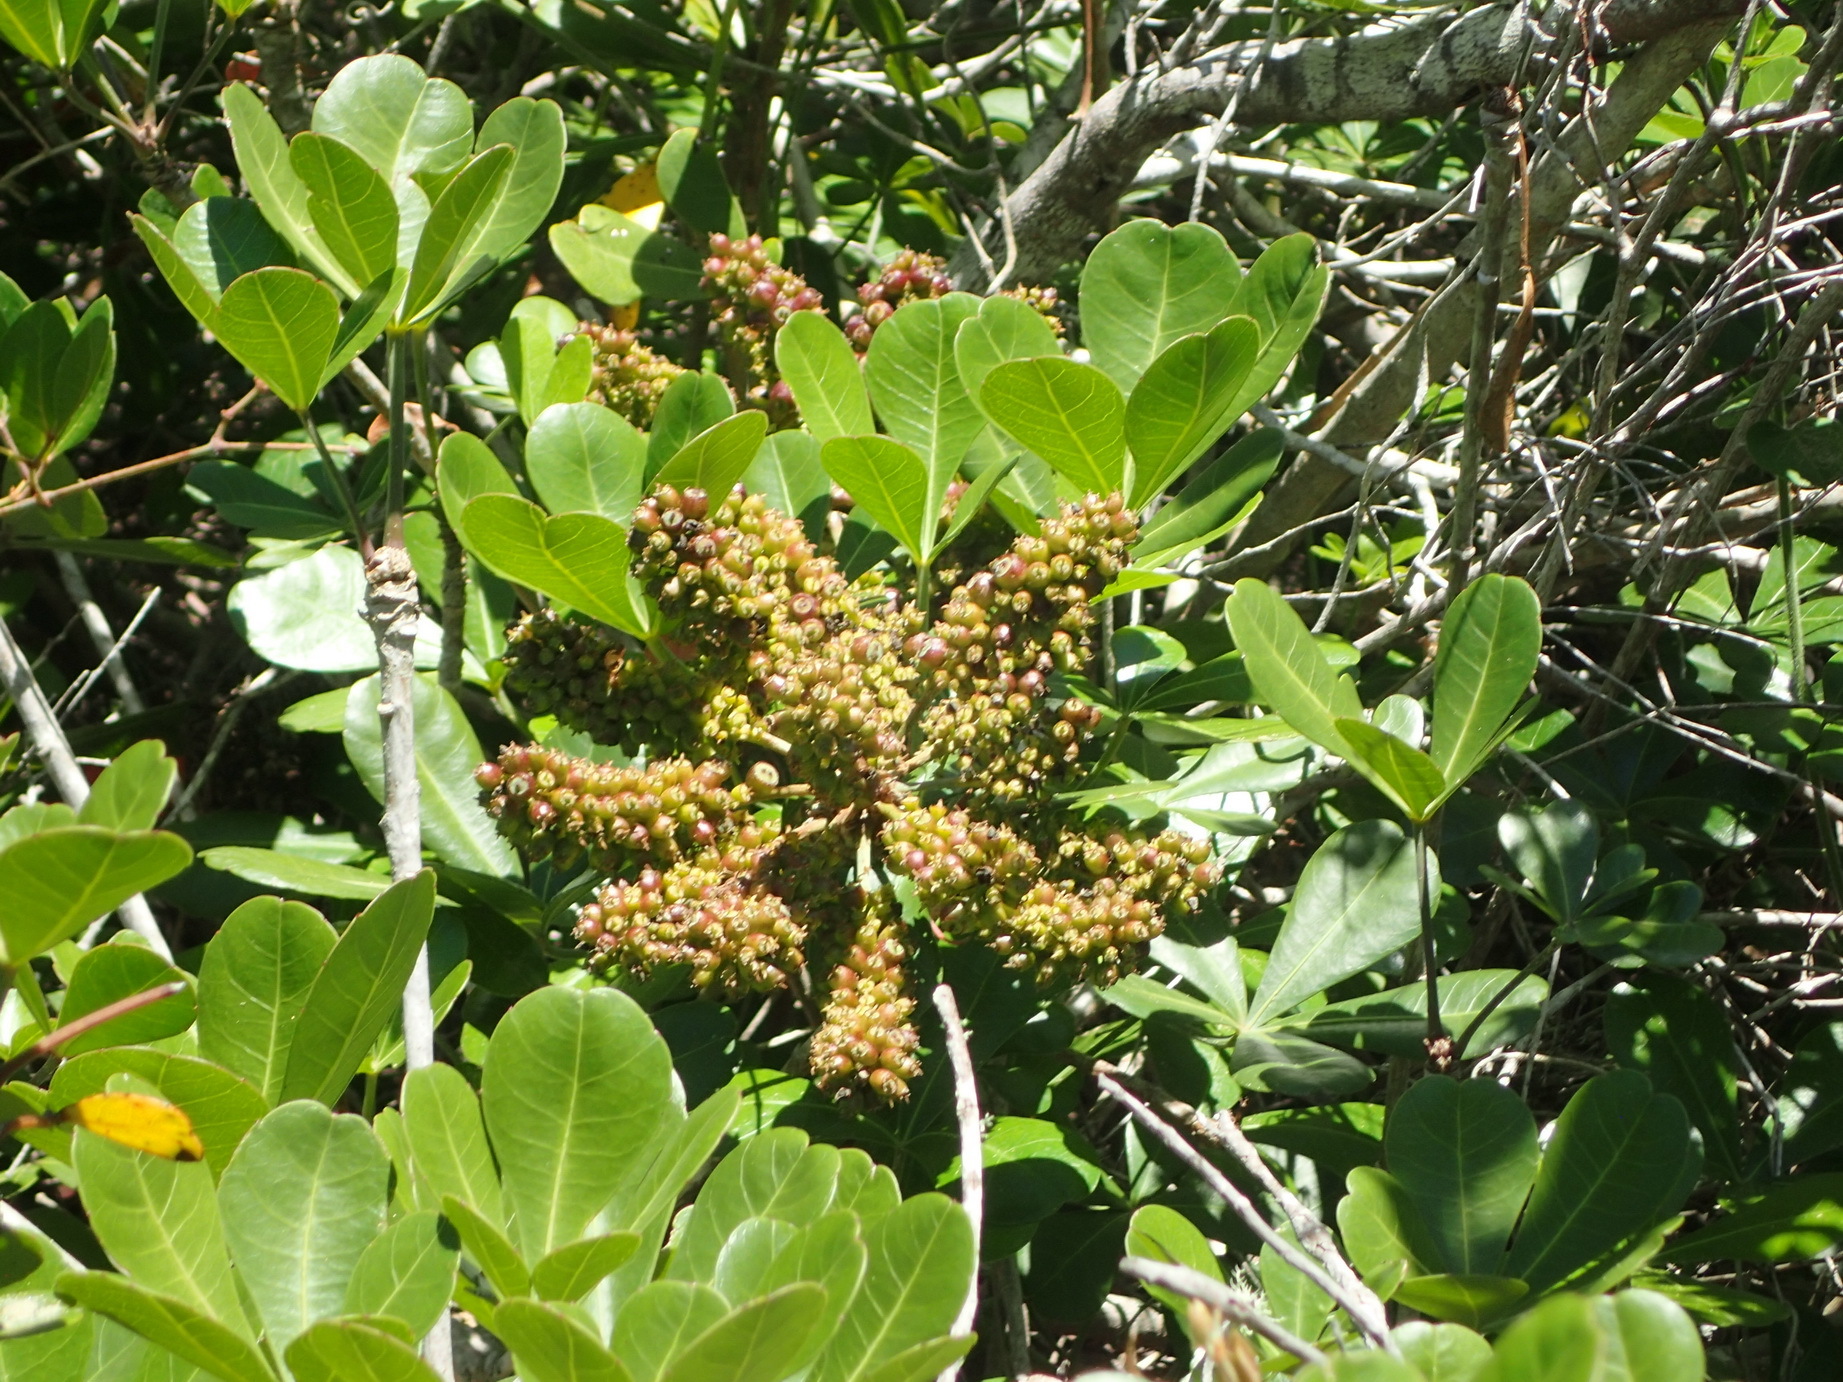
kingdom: Plantae
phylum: Tracheophyta
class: Magnoliopsida
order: Apiales
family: Araliaceae
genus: Cussonia
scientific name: Cussonia thyrsiflora
